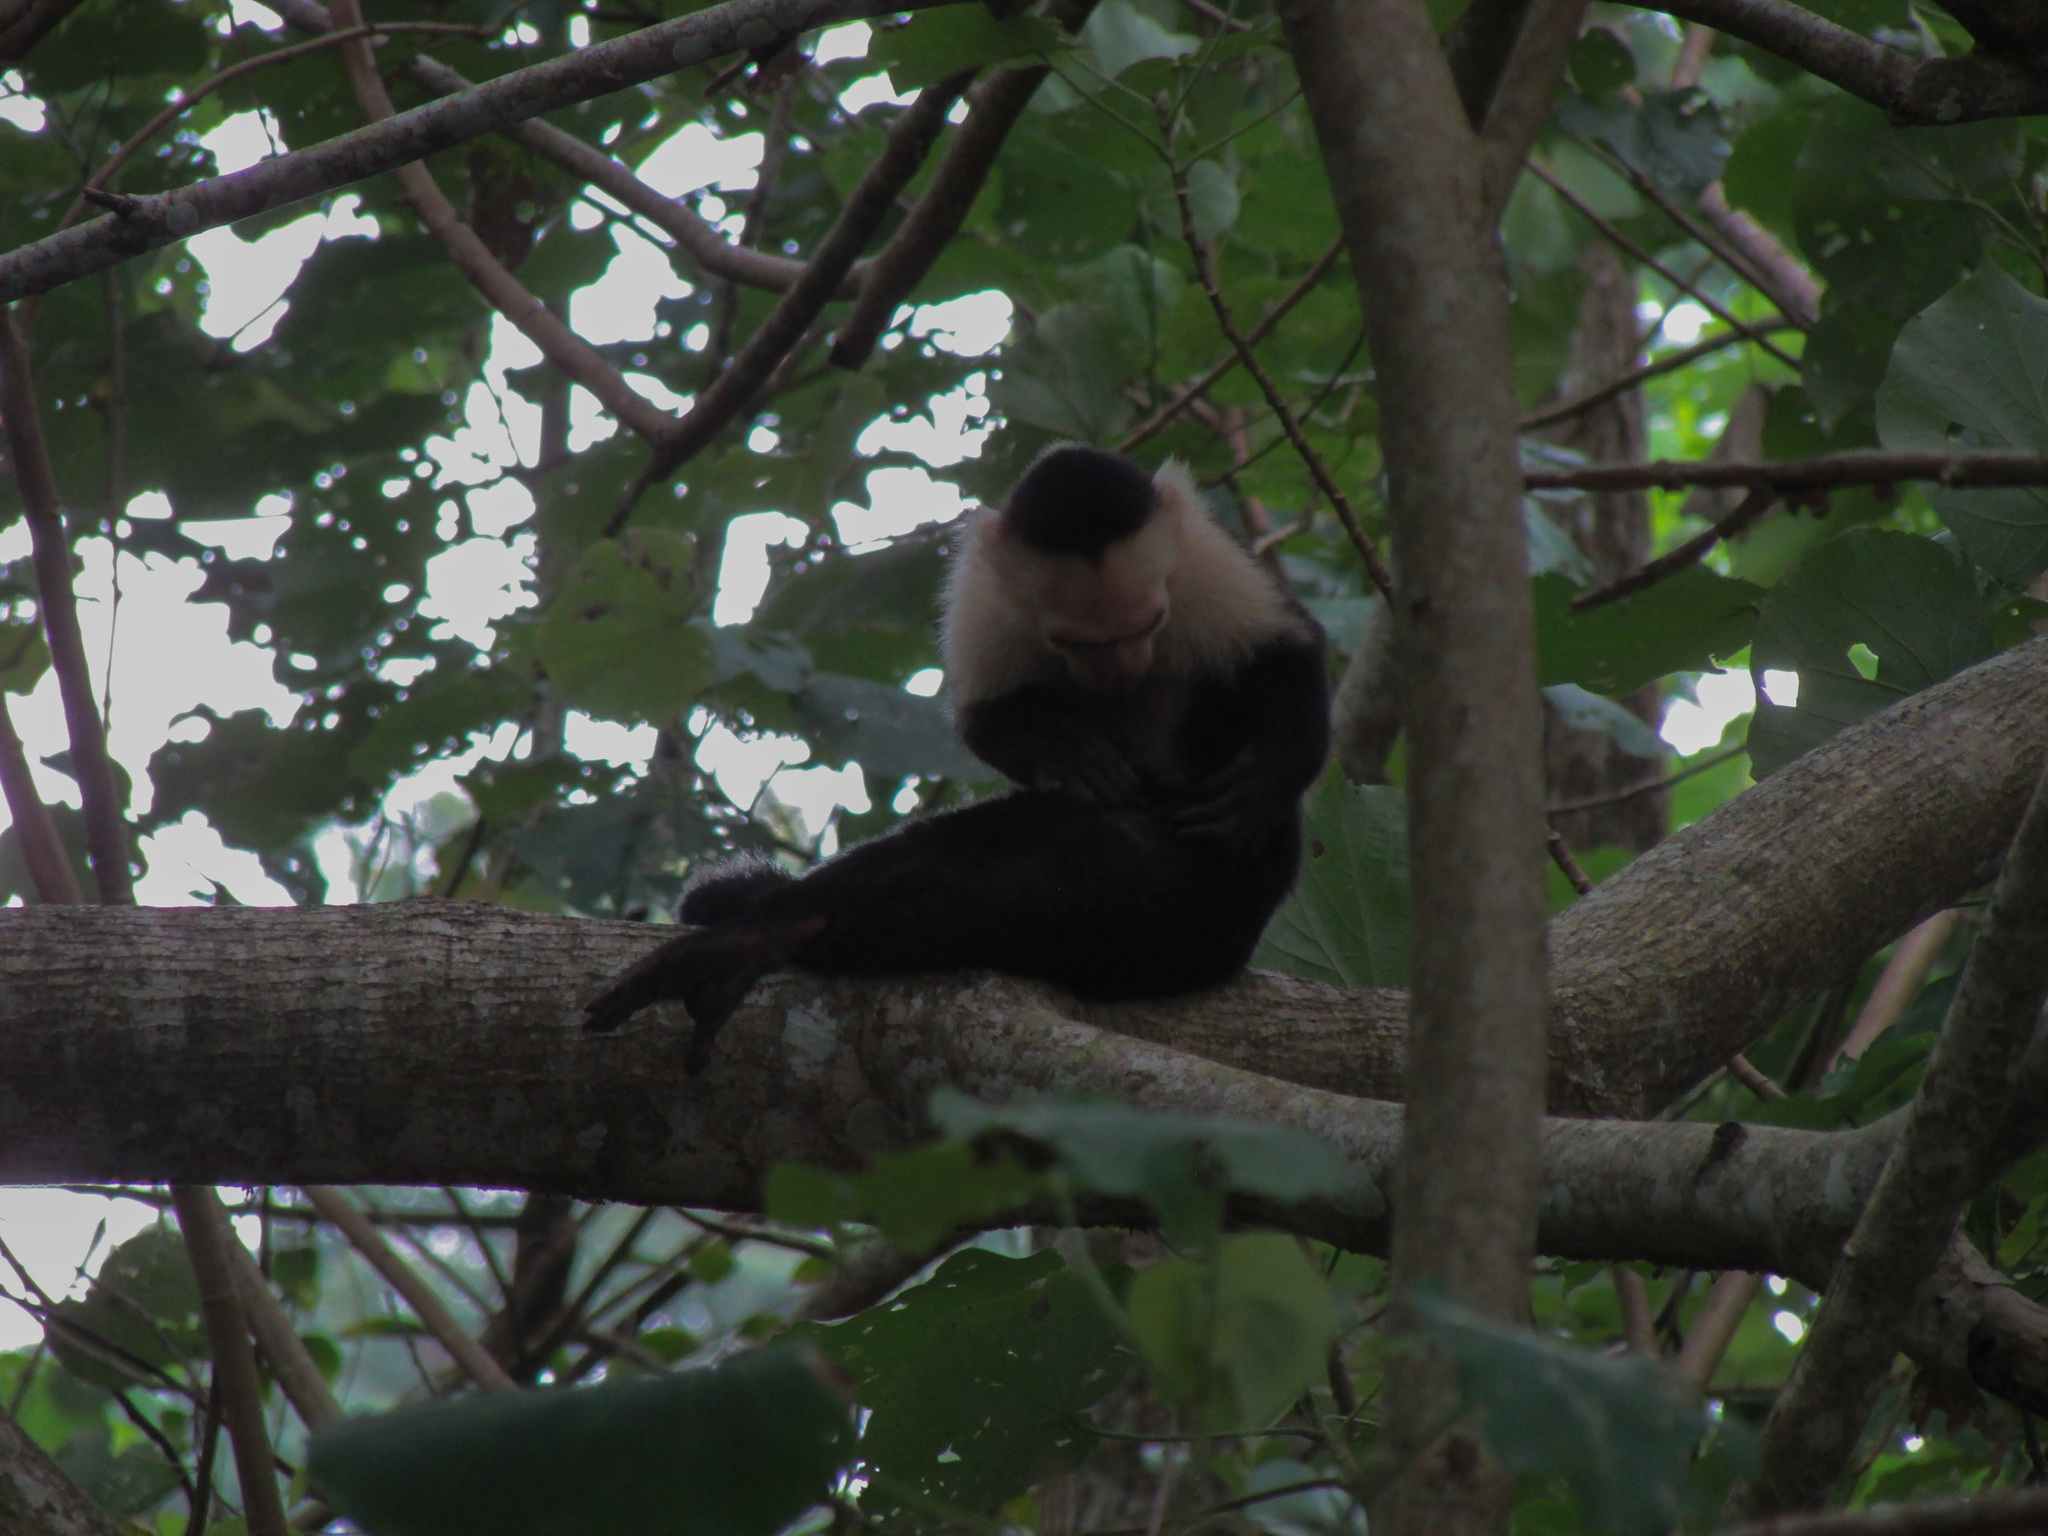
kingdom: Animalia
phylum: Chordata
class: Mammalia
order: Primates
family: Cebidae
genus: Cebus
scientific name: Cebus imitator
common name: Panamanian white-faced capuchin
